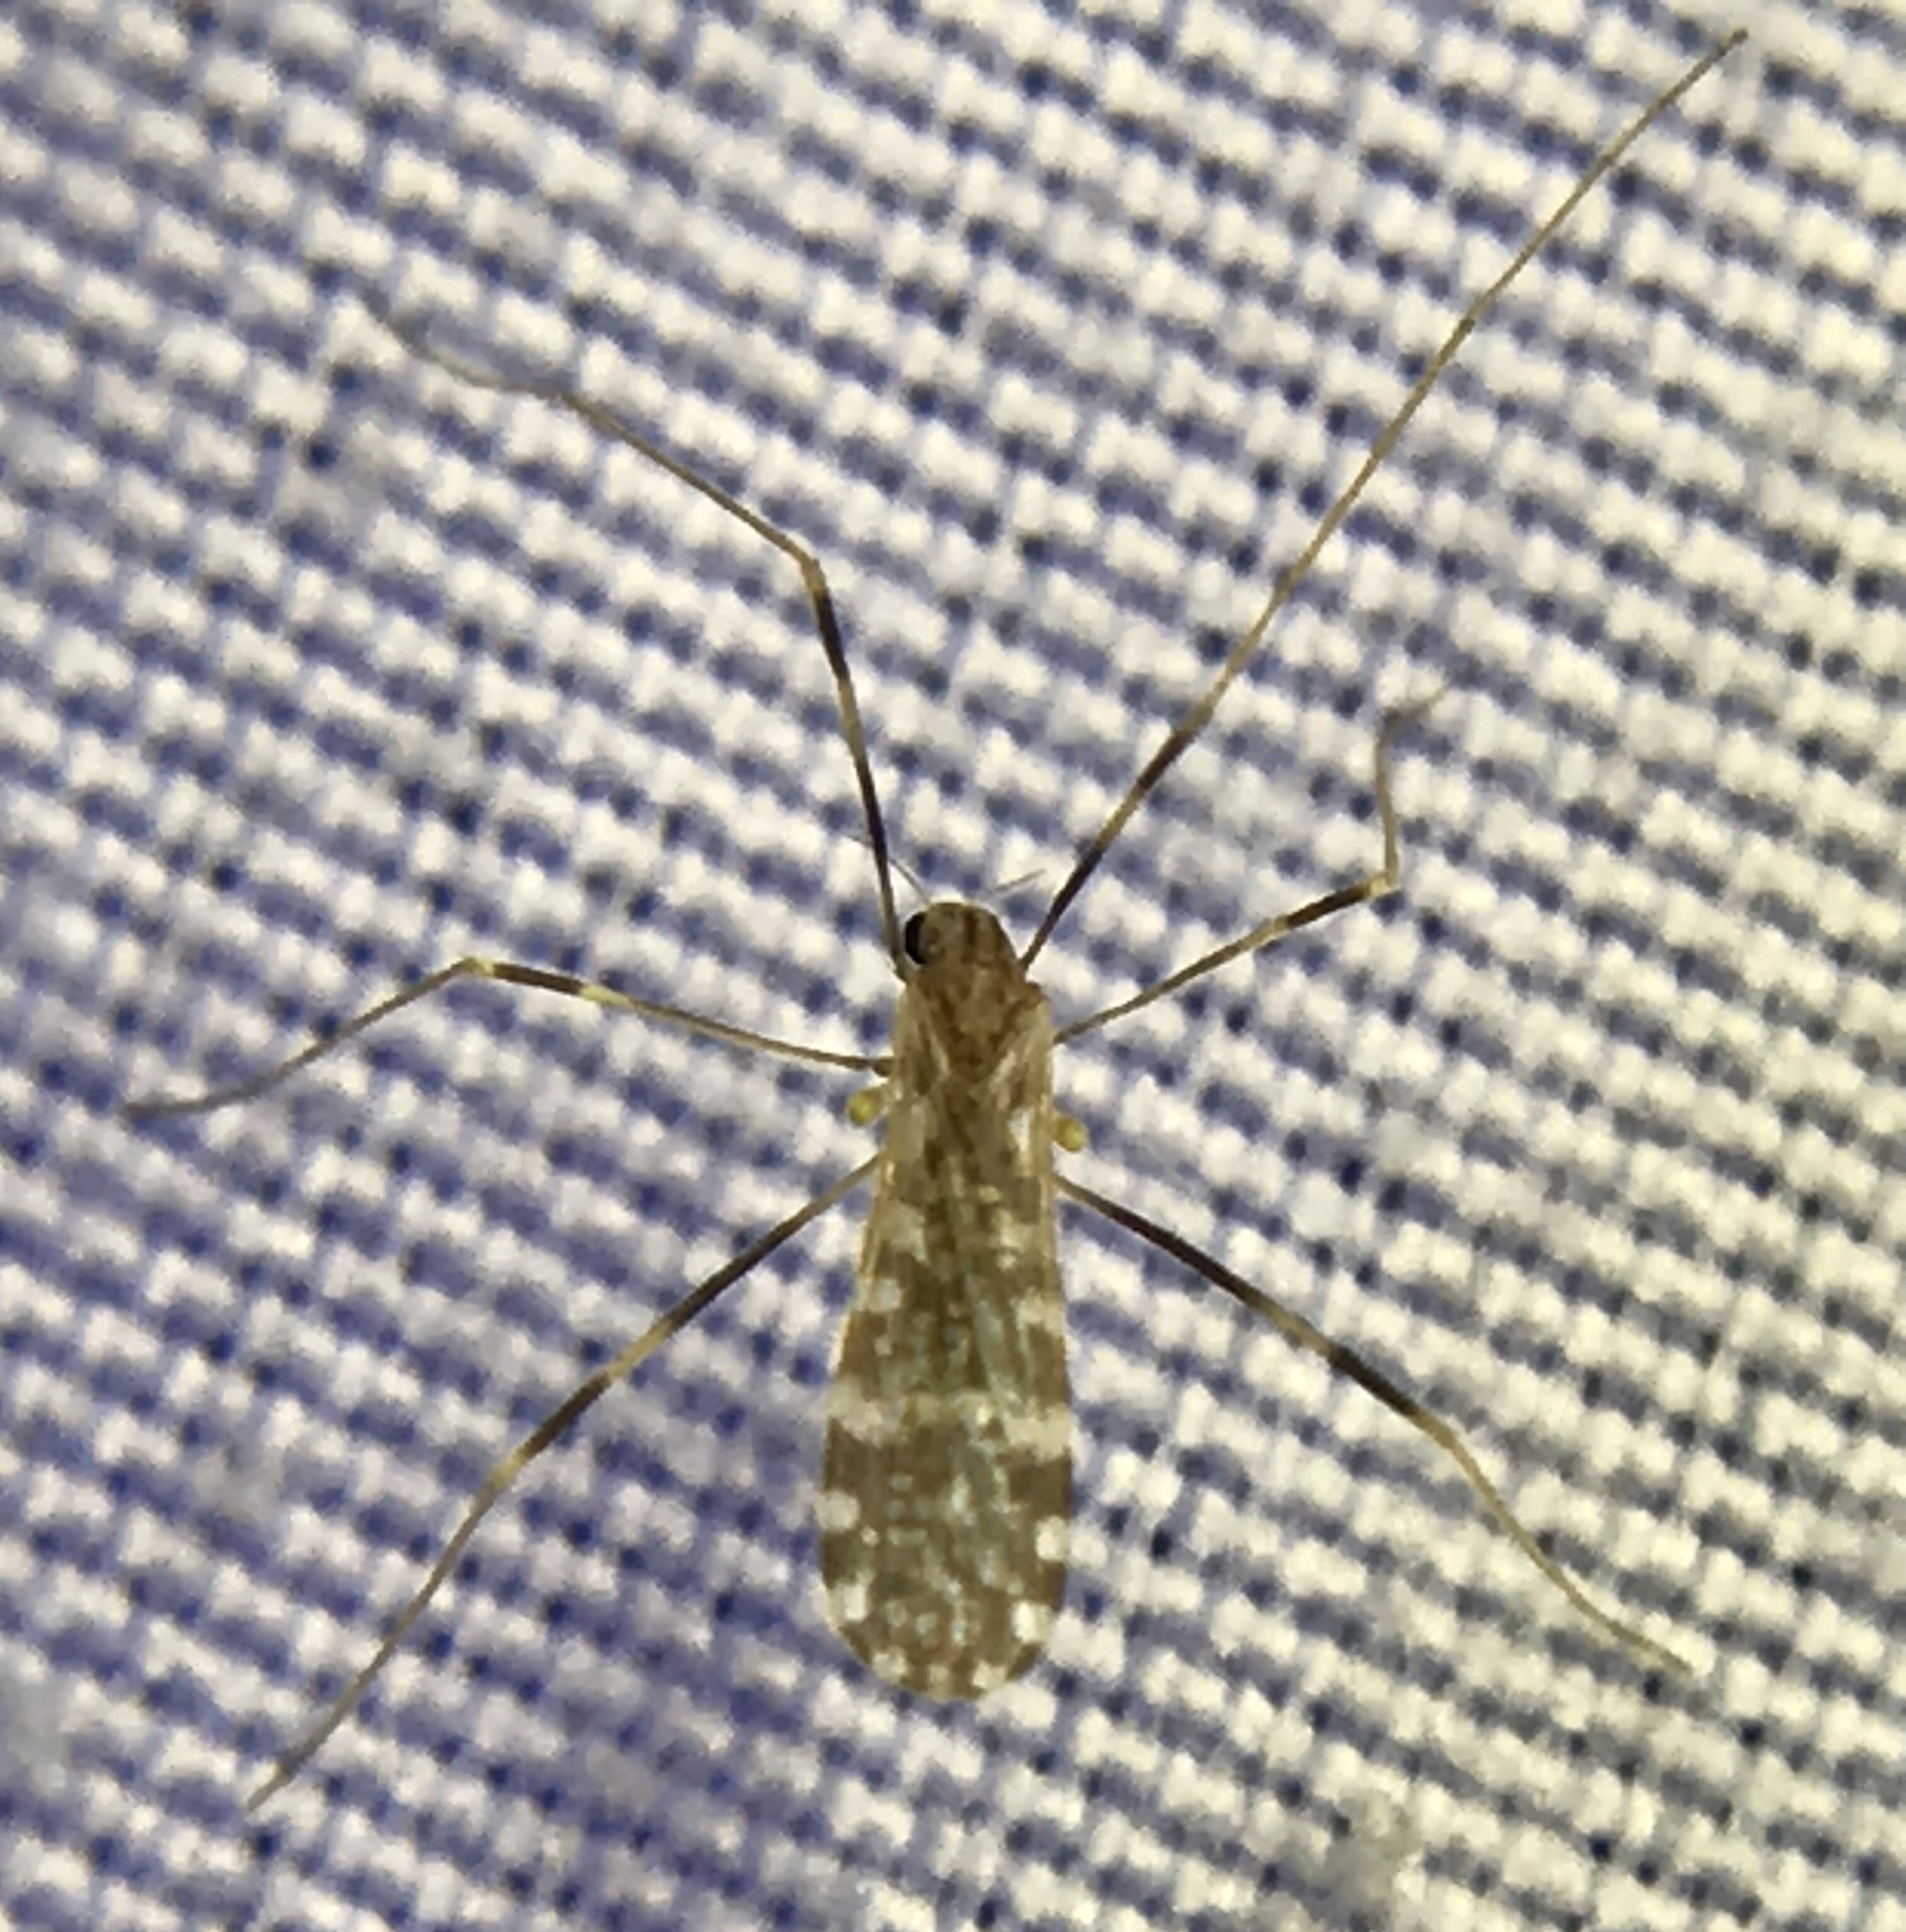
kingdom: Animalia
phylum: Arthropoda
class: Insecta
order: Diptera
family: Limoniidae
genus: Erioptera
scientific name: Erioptera caliptera
